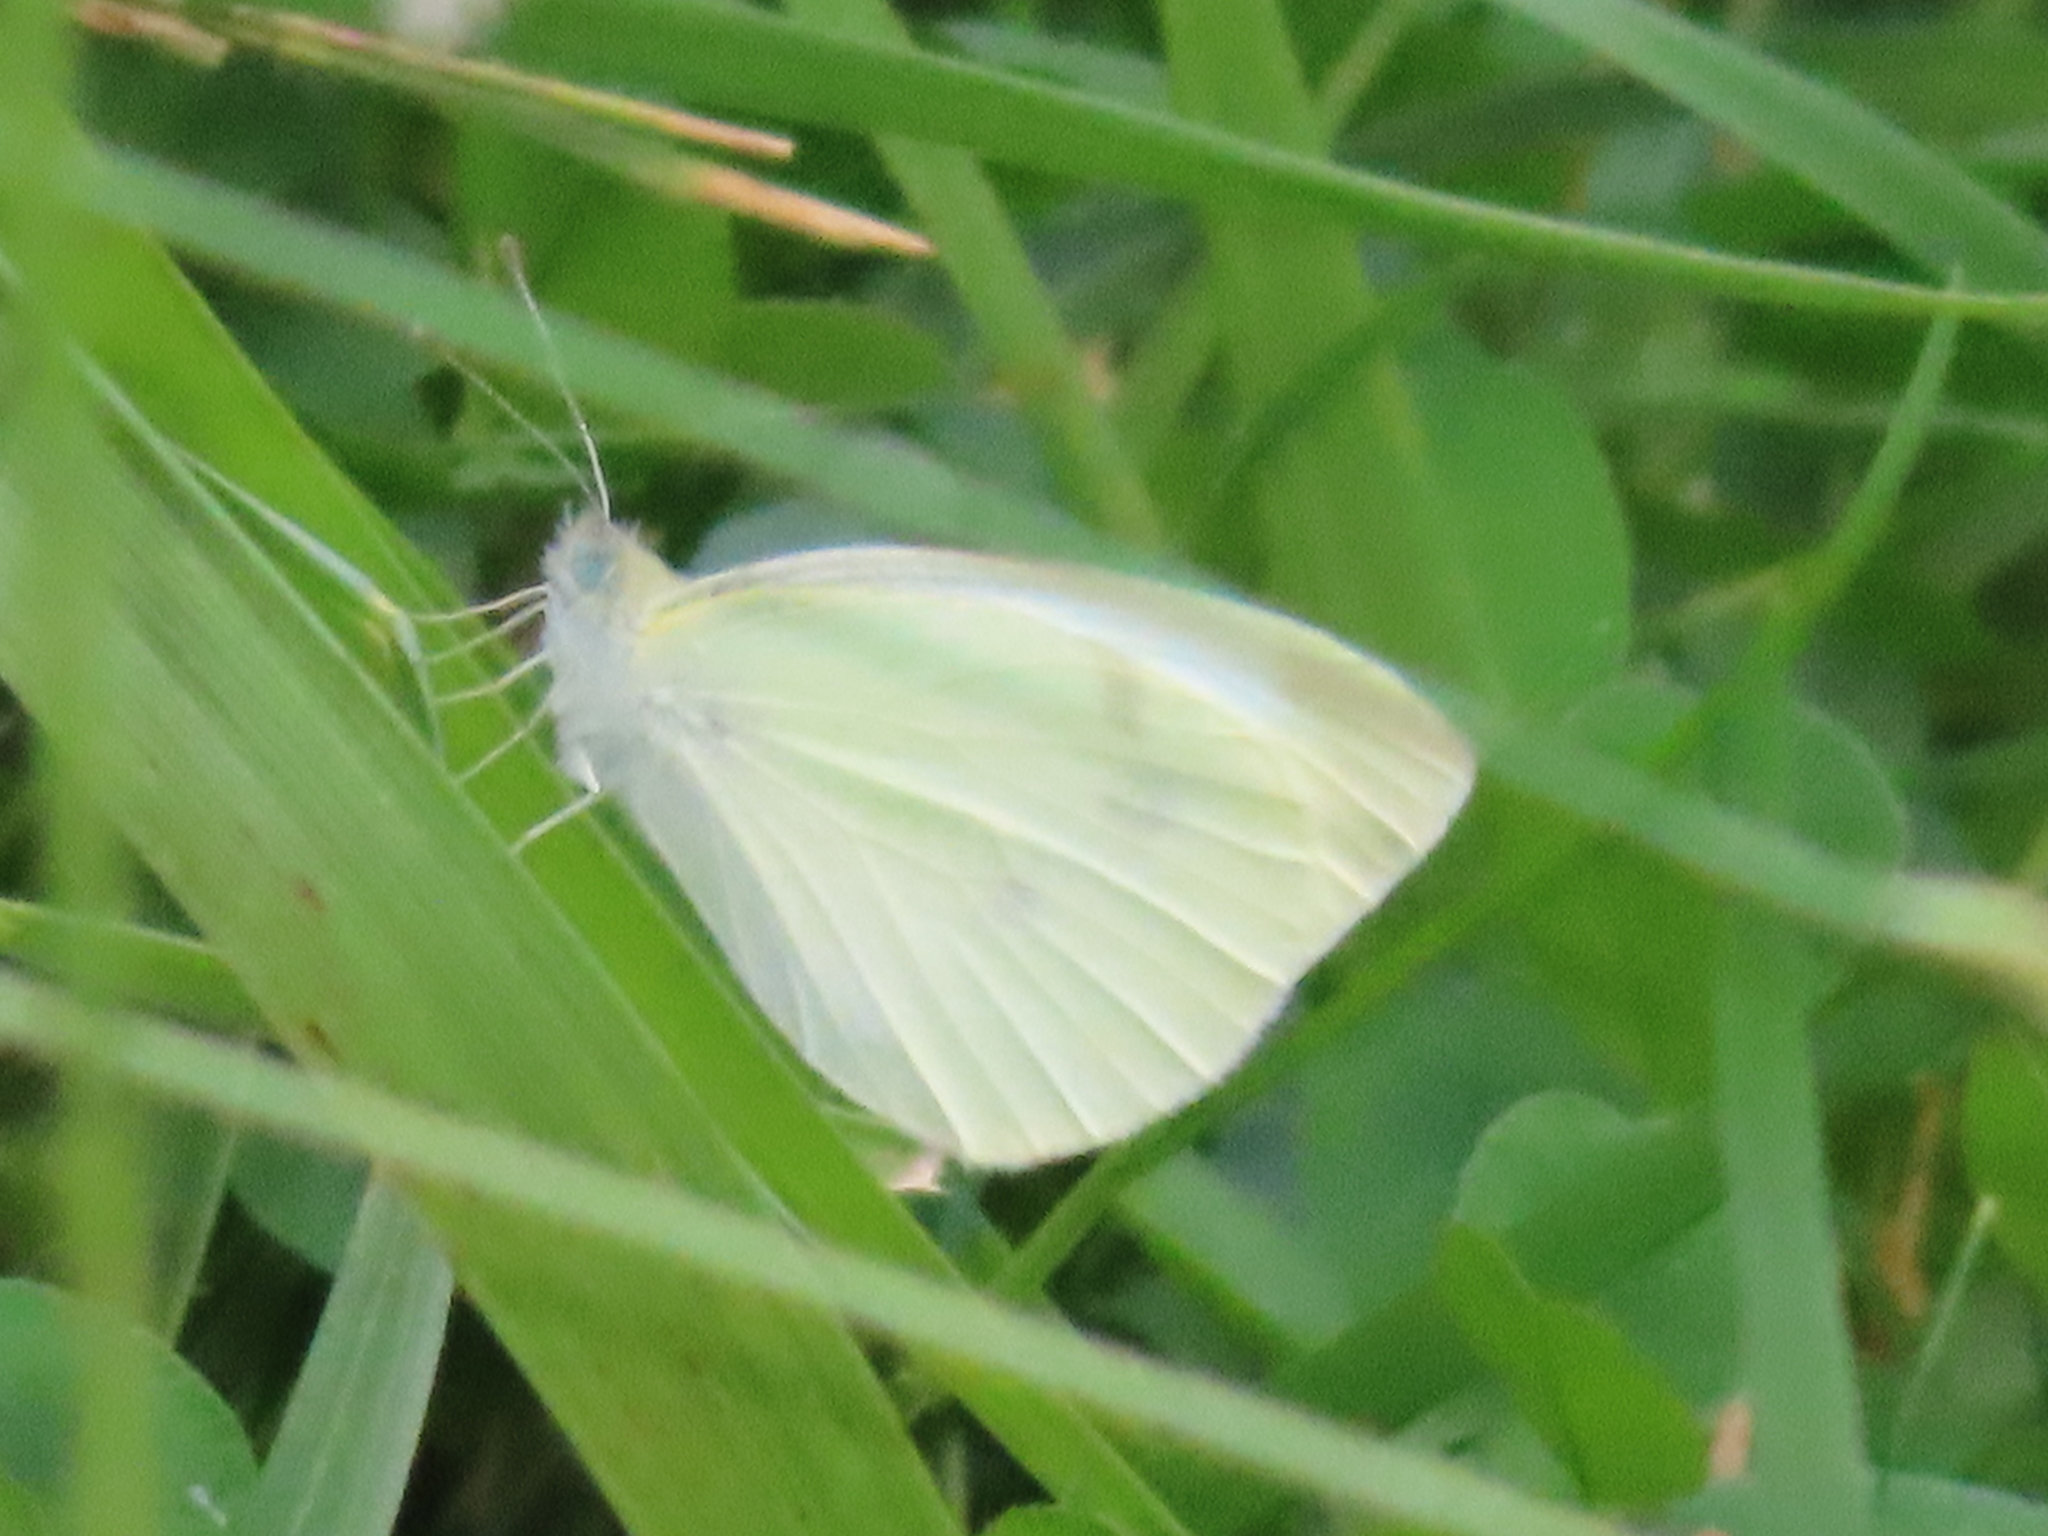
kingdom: Animalia
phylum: Arthropoda
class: Insecta
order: Lepidoptera
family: Pieridae
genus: Pieris
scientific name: Pieris rapae
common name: Small white
